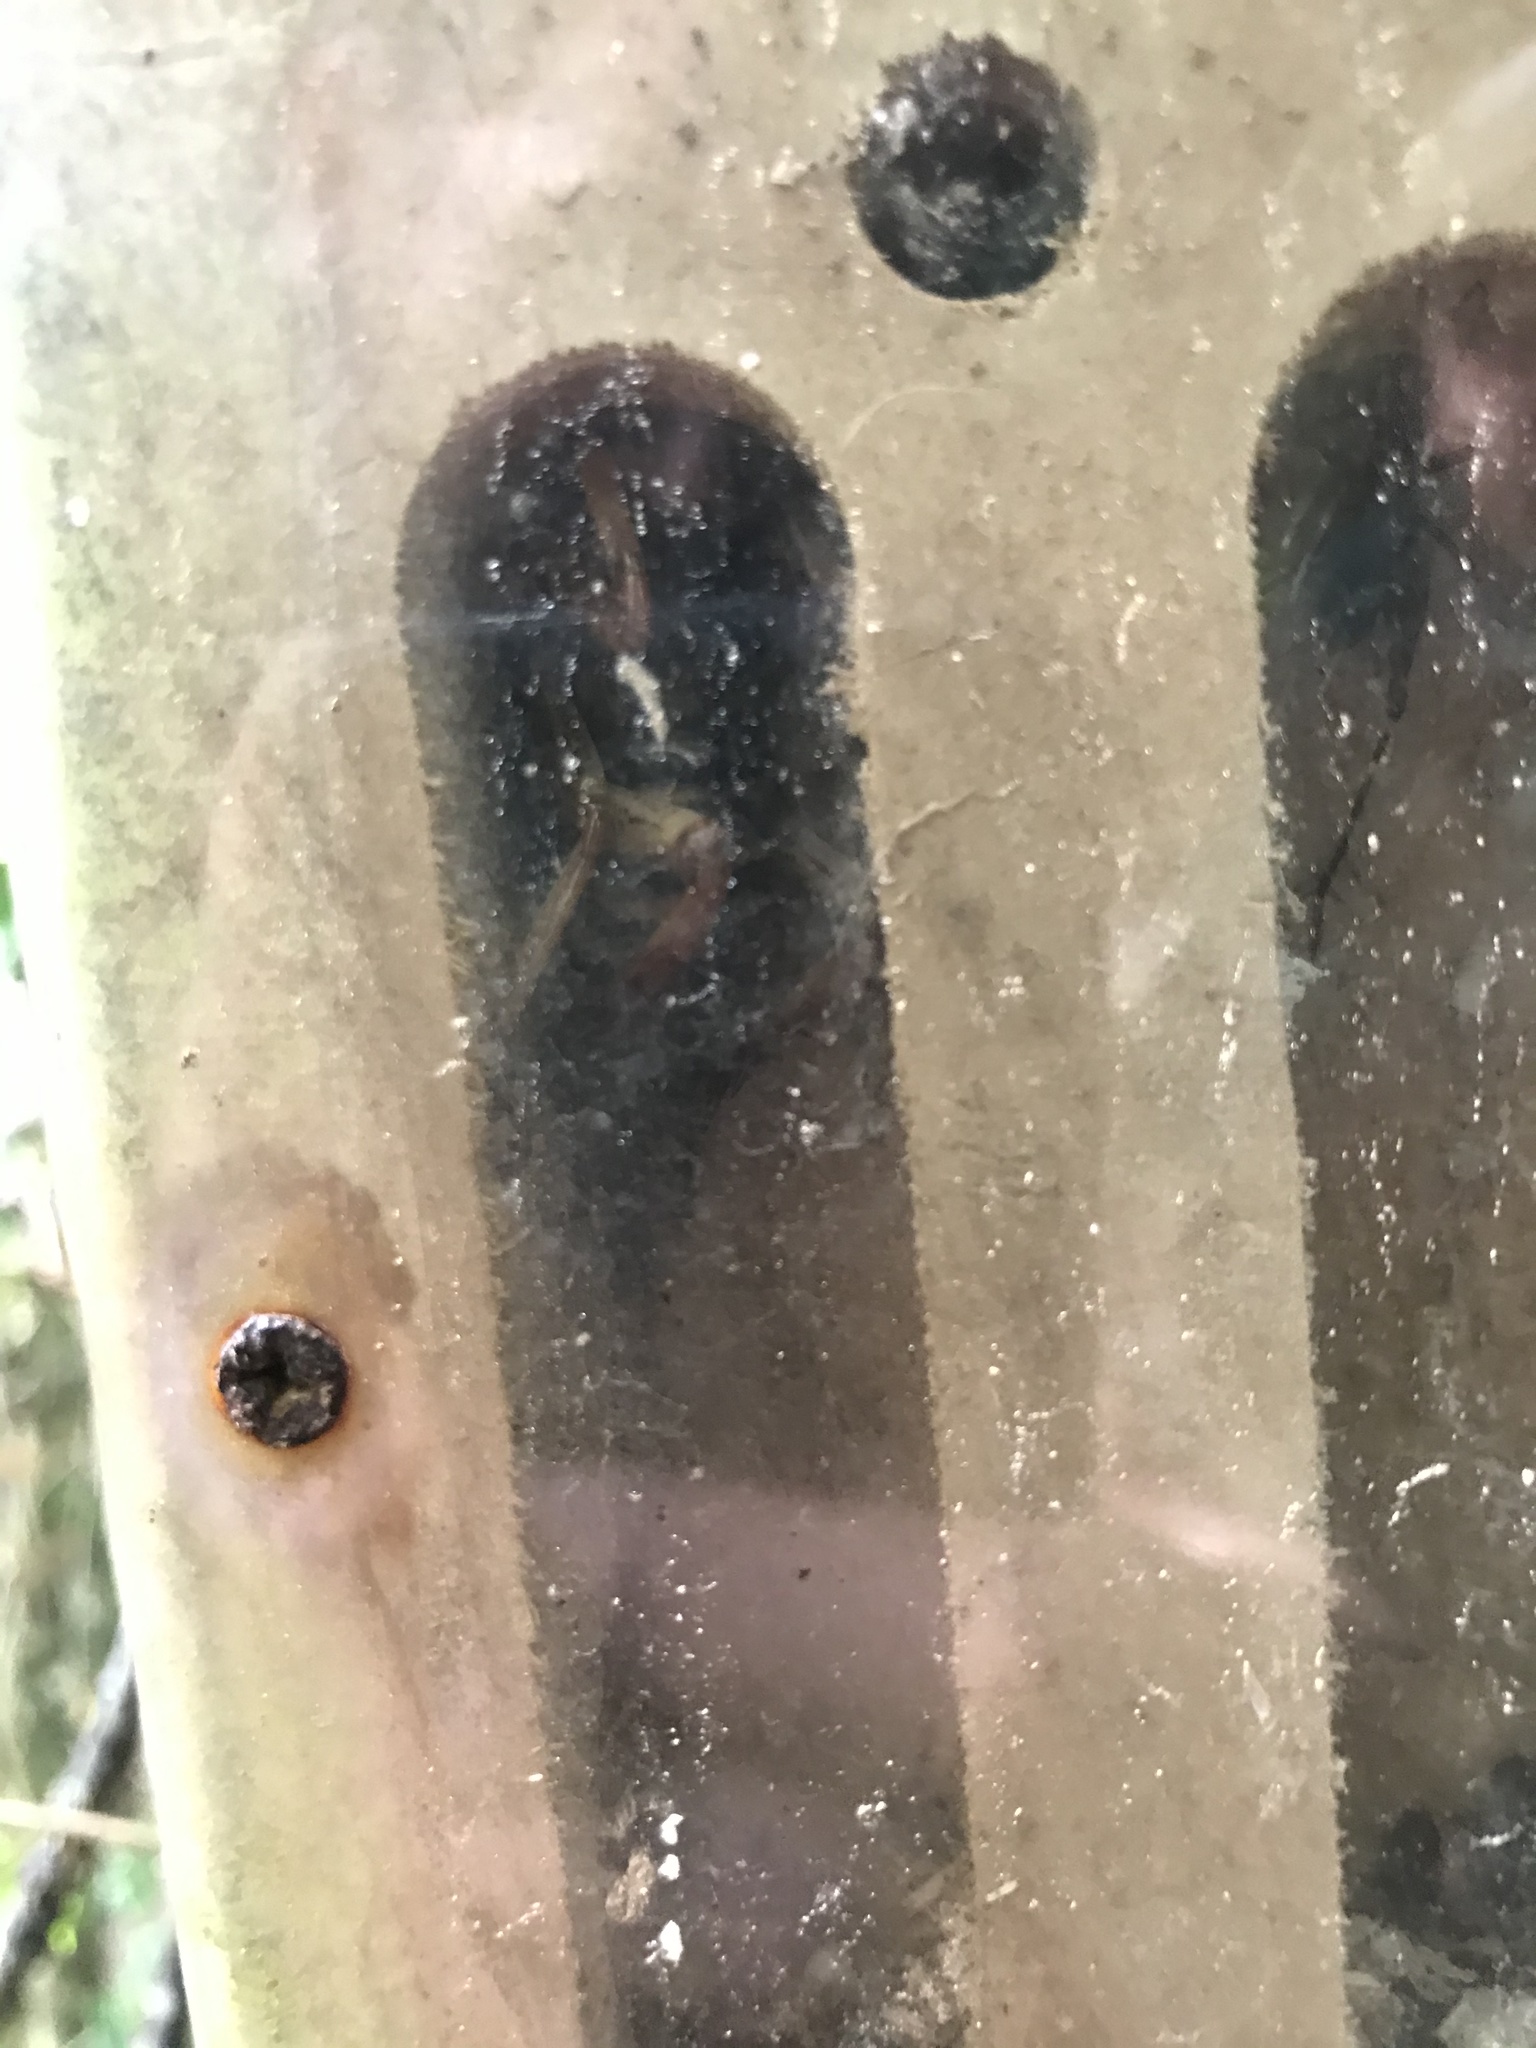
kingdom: Animalia
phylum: Arthropoda
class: Insecta
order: Orthoptera
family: Anostostomatidae
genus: Hemideina
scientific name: Hemideina crassidens
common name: Wellington tree weta
